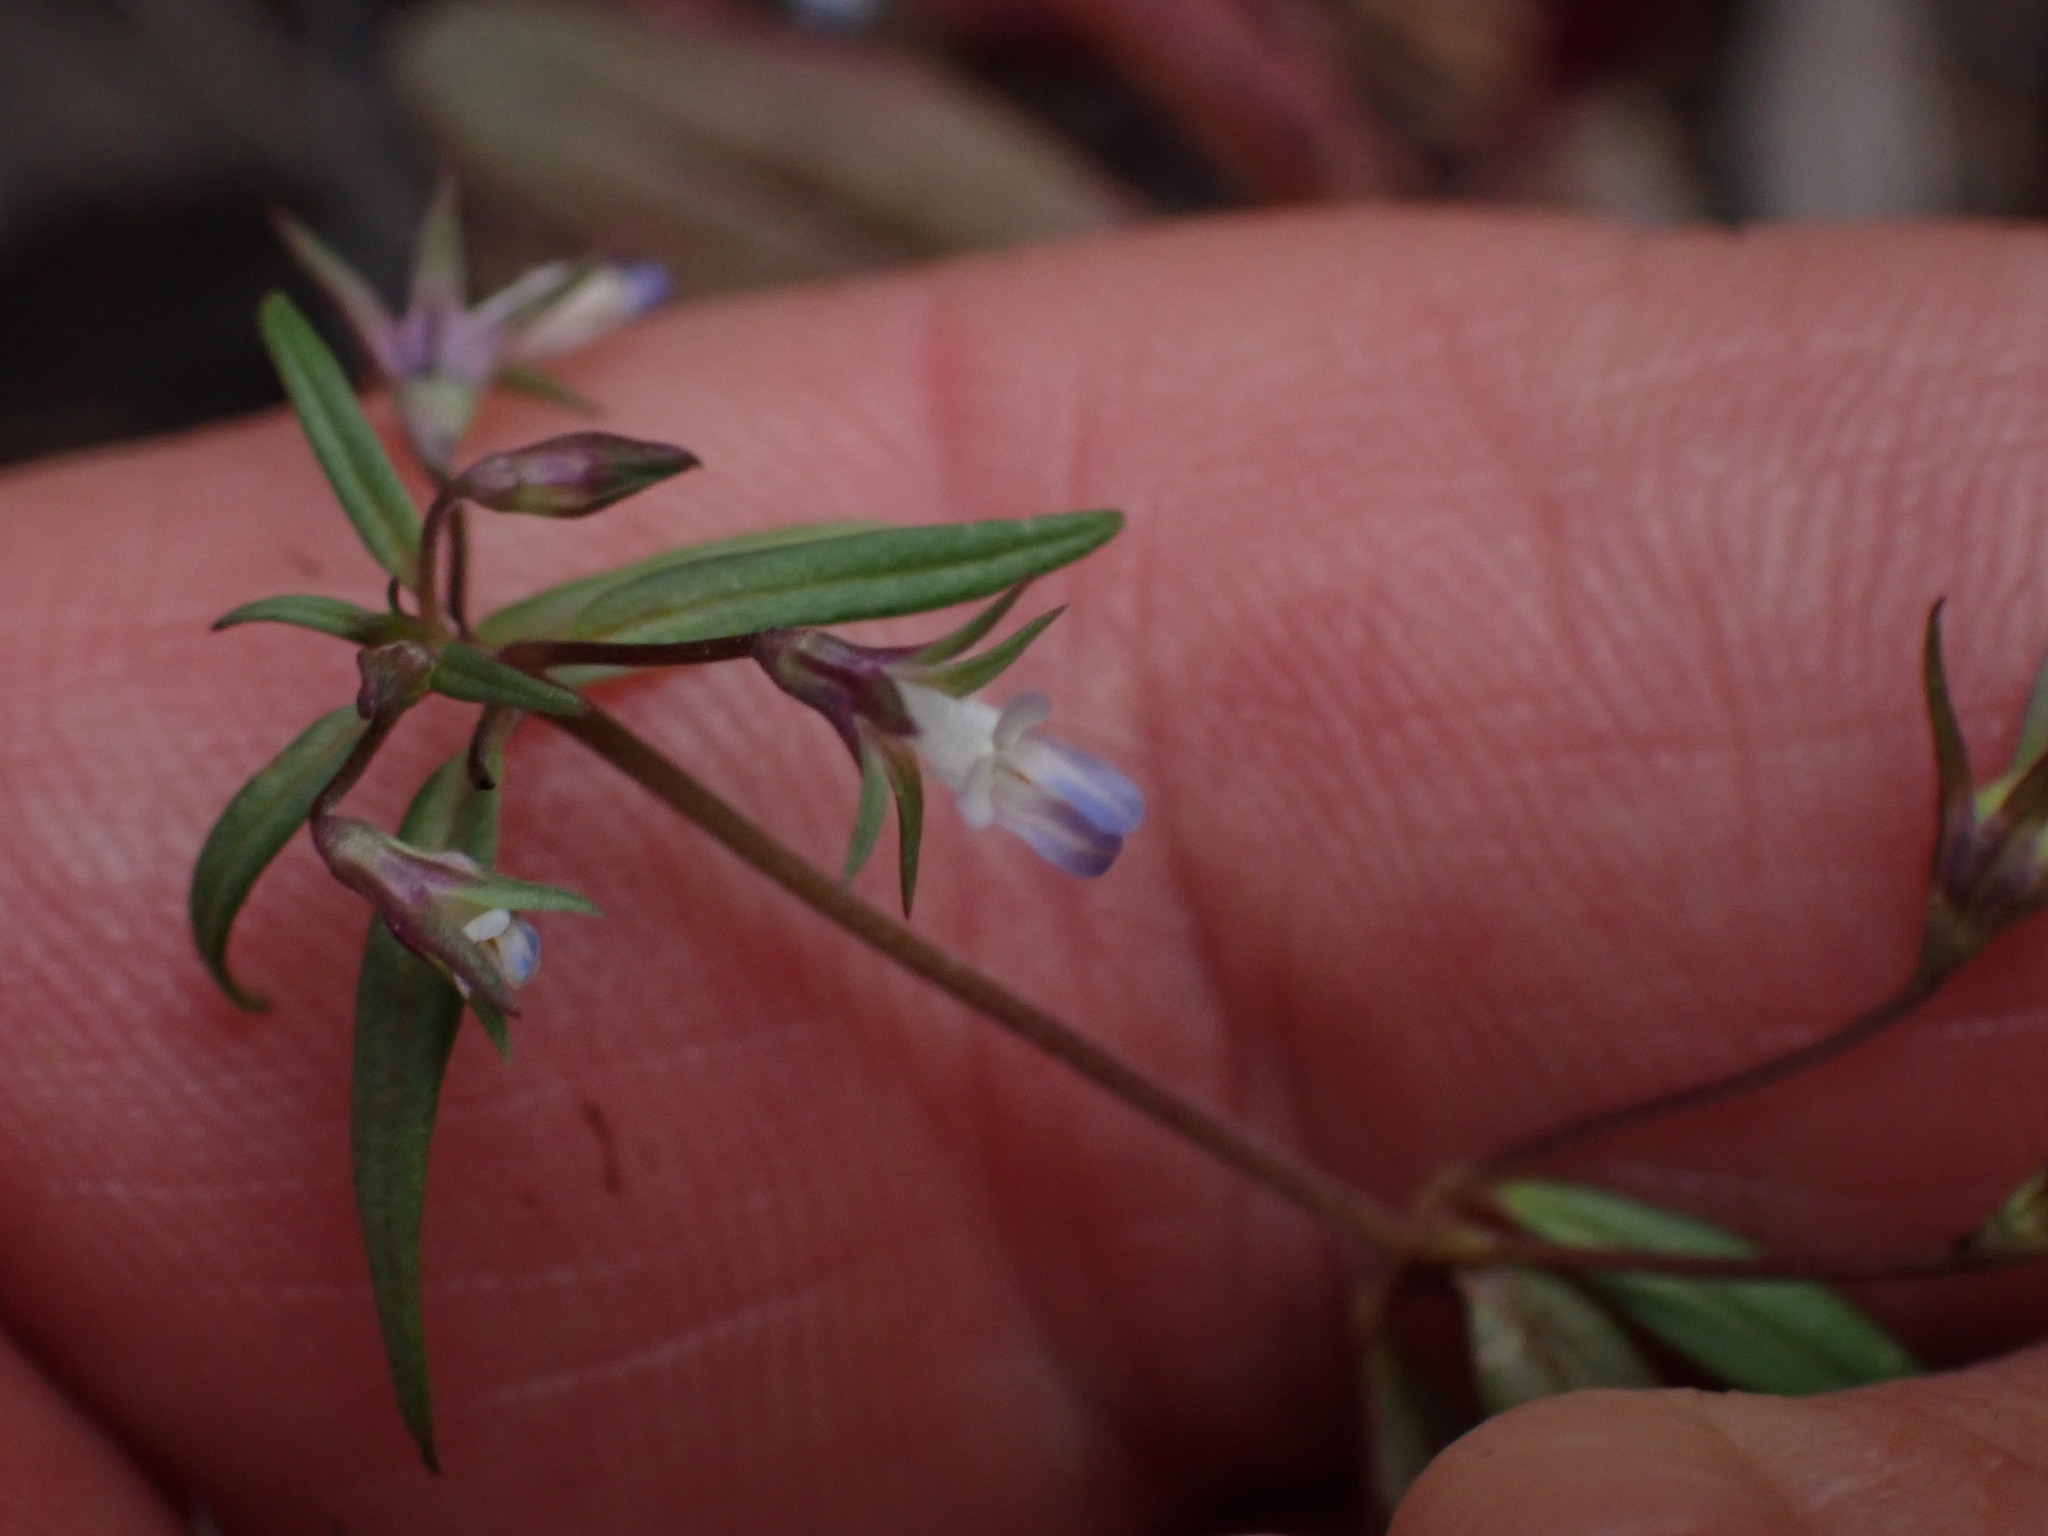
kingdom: Plantae
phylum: Tracheophyta
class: Magnoliopsida
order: Lamiales
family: Plantaginaceae
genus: Collinsia
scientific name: Collinsia parviflora
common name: Blue-lips
